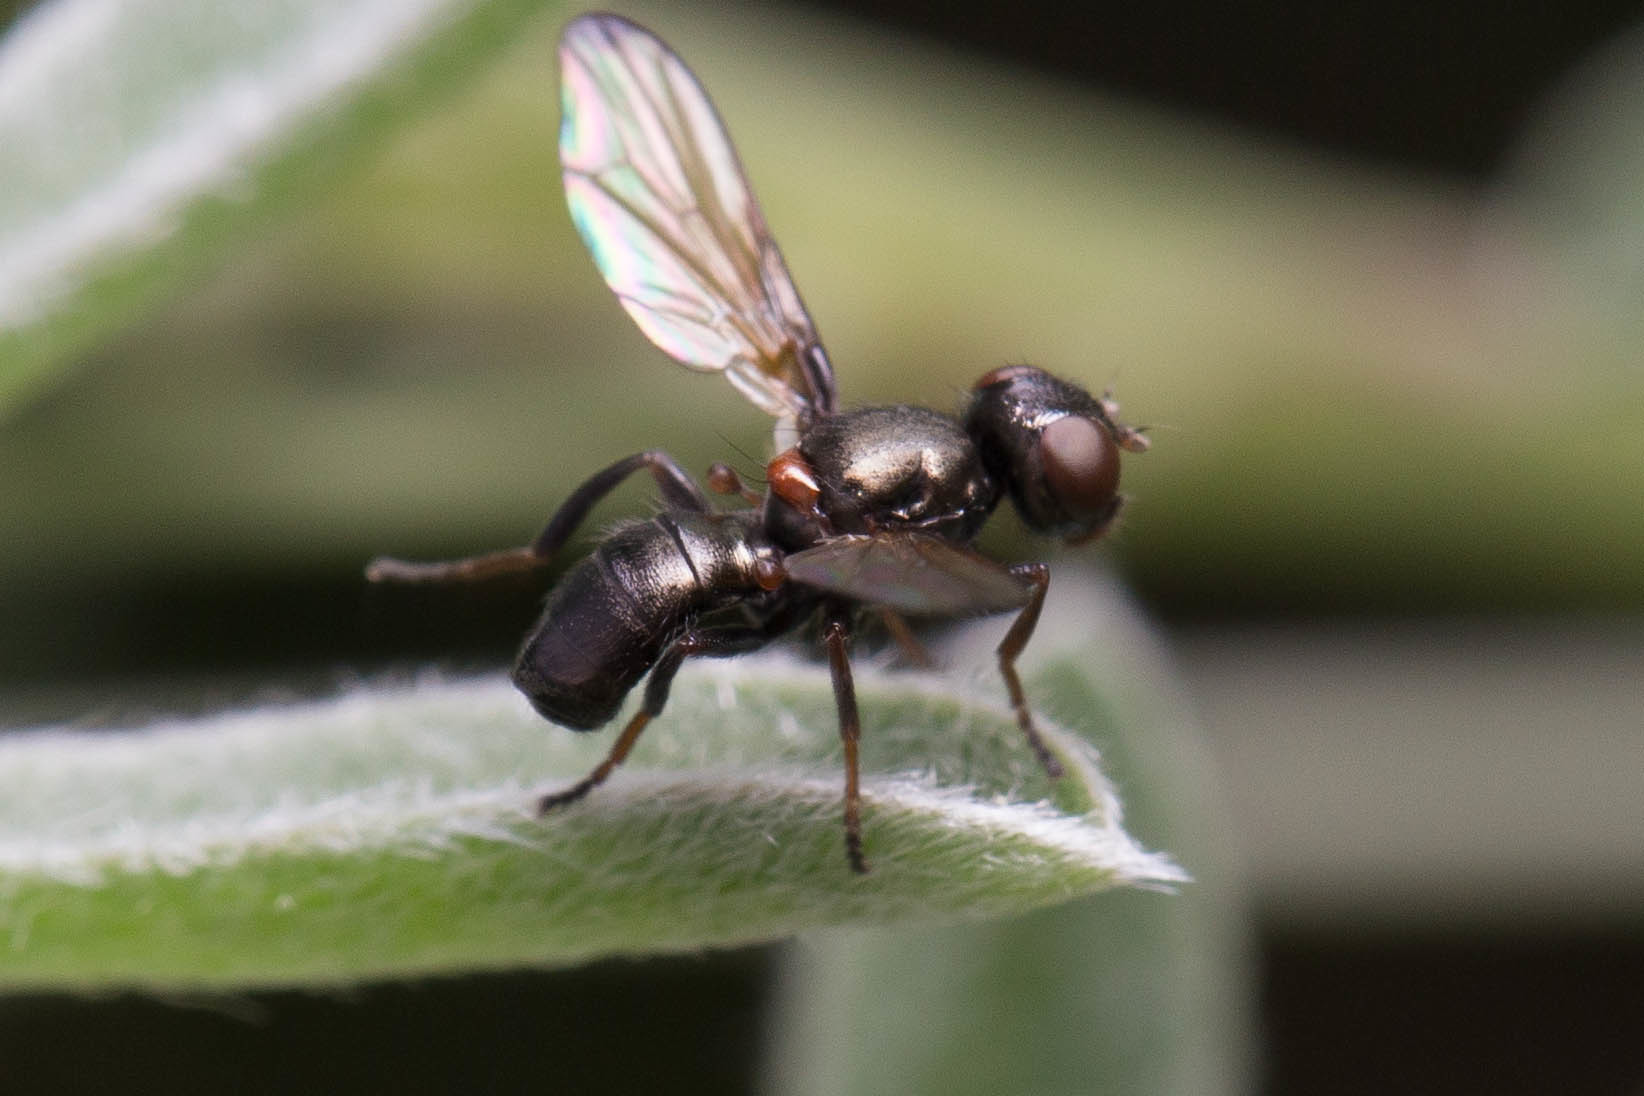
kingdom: Animalia
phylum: Arthropoda
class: Insecta
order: Diptera
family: Ulidiidae
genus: Curranops
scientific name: Curranops apicalis
